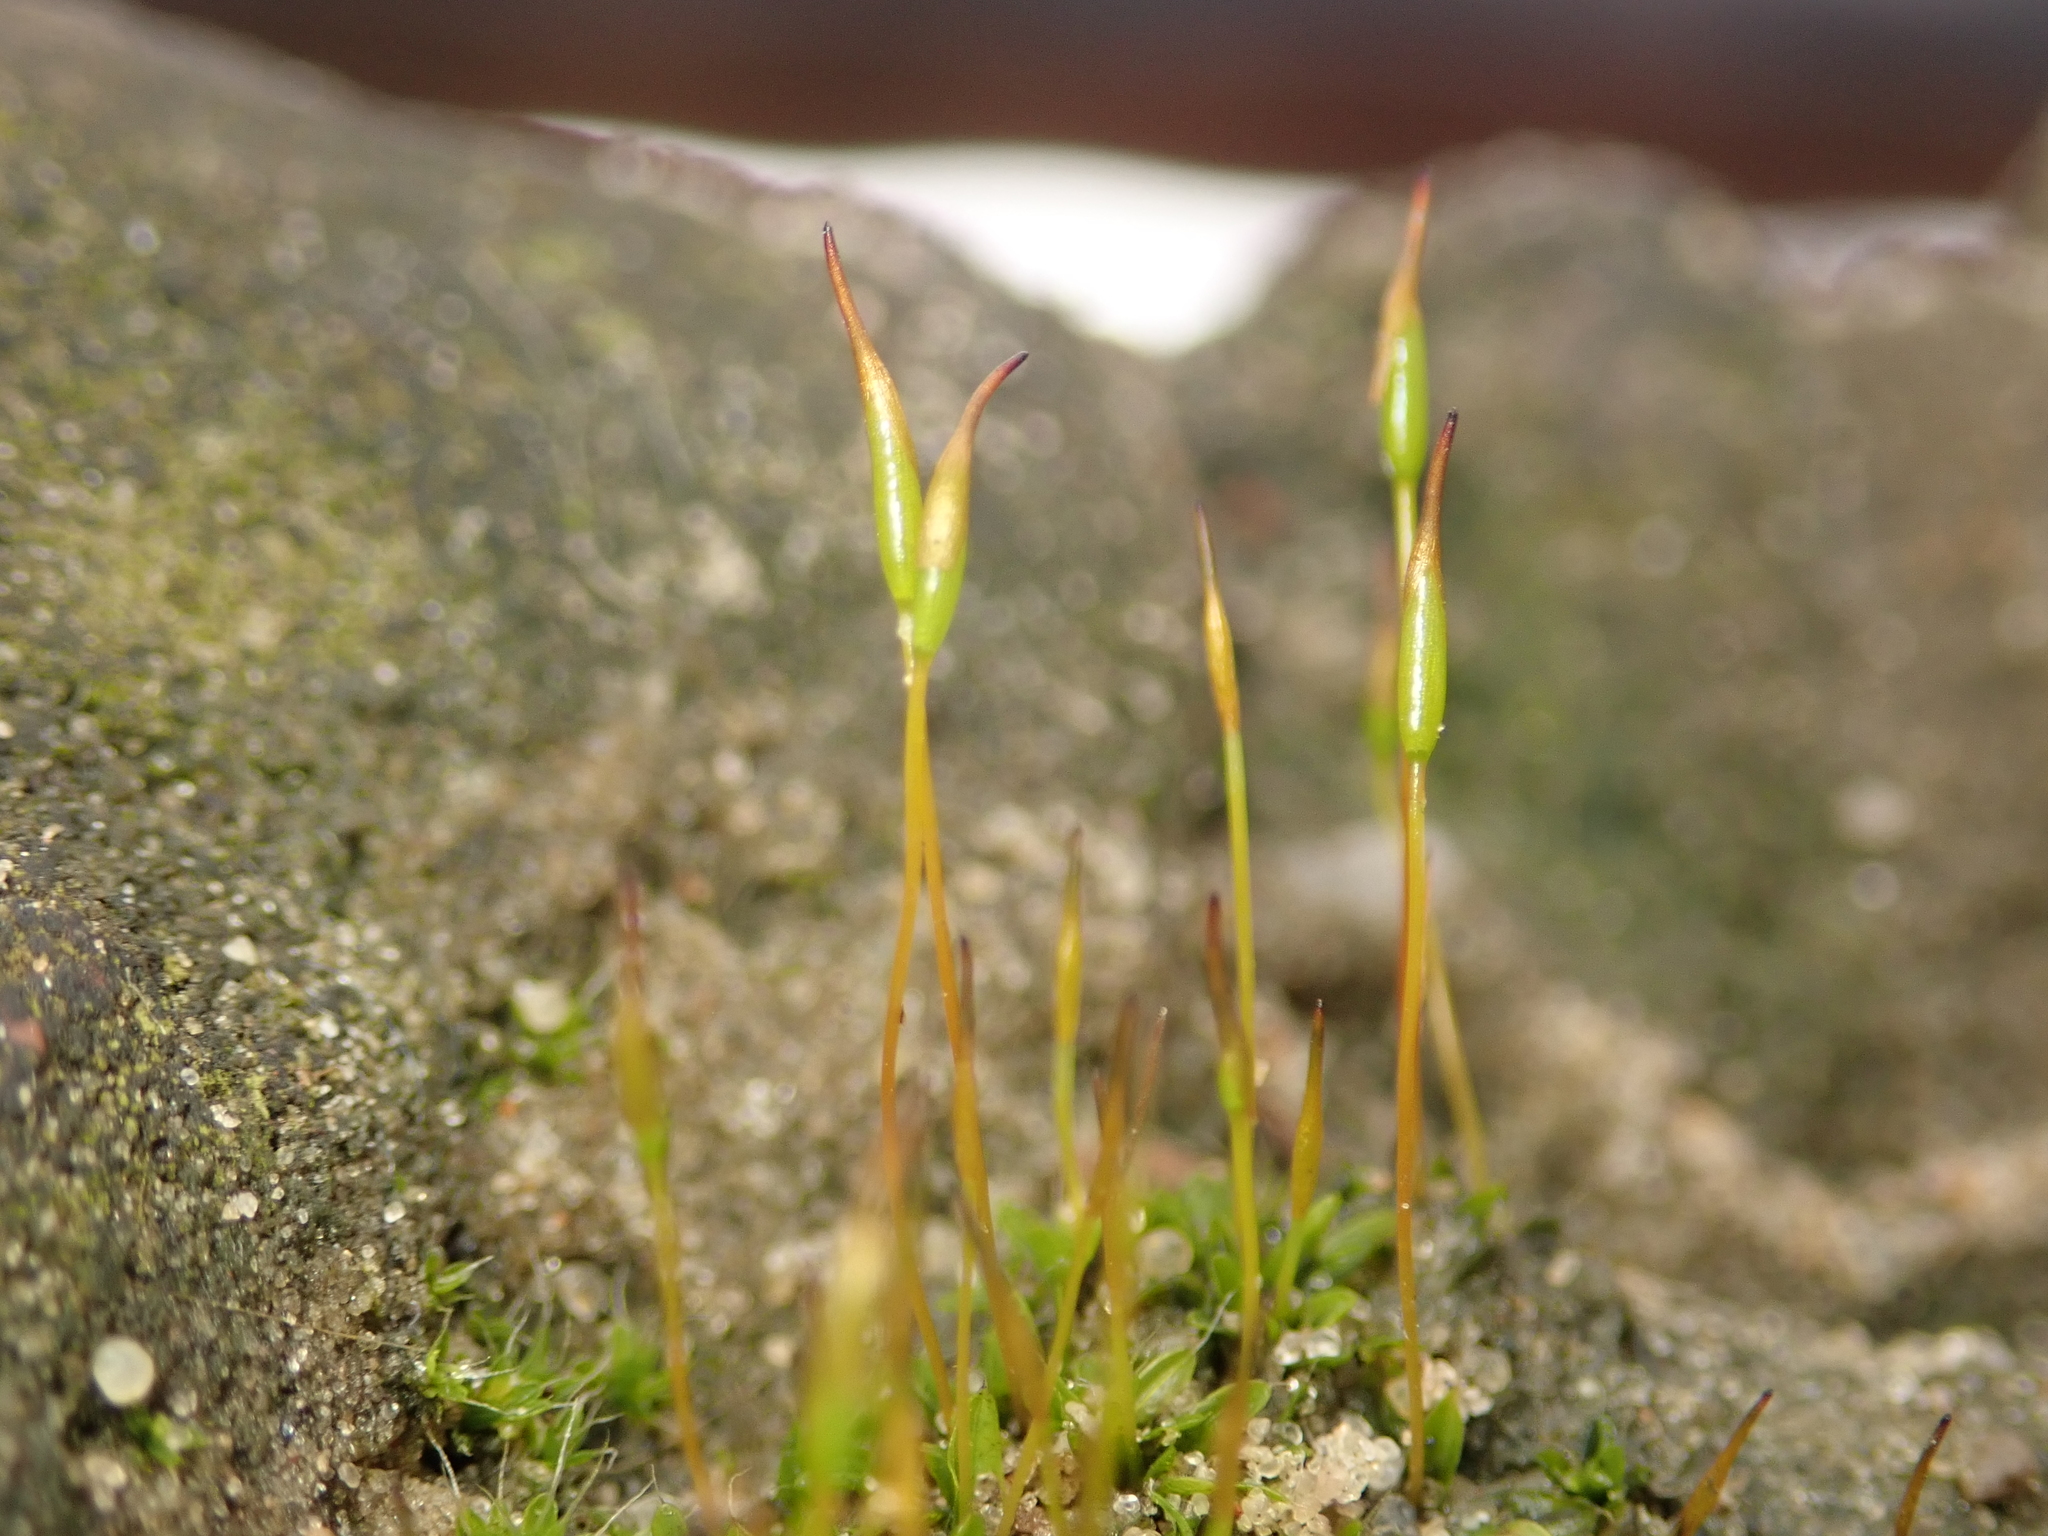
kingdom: Plantae
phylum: Bryophyta
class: Bryopsida
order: Pottiales
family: Pottiaceae
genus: Tortula
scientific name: Tortula muralis
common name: Wall screw-moss
